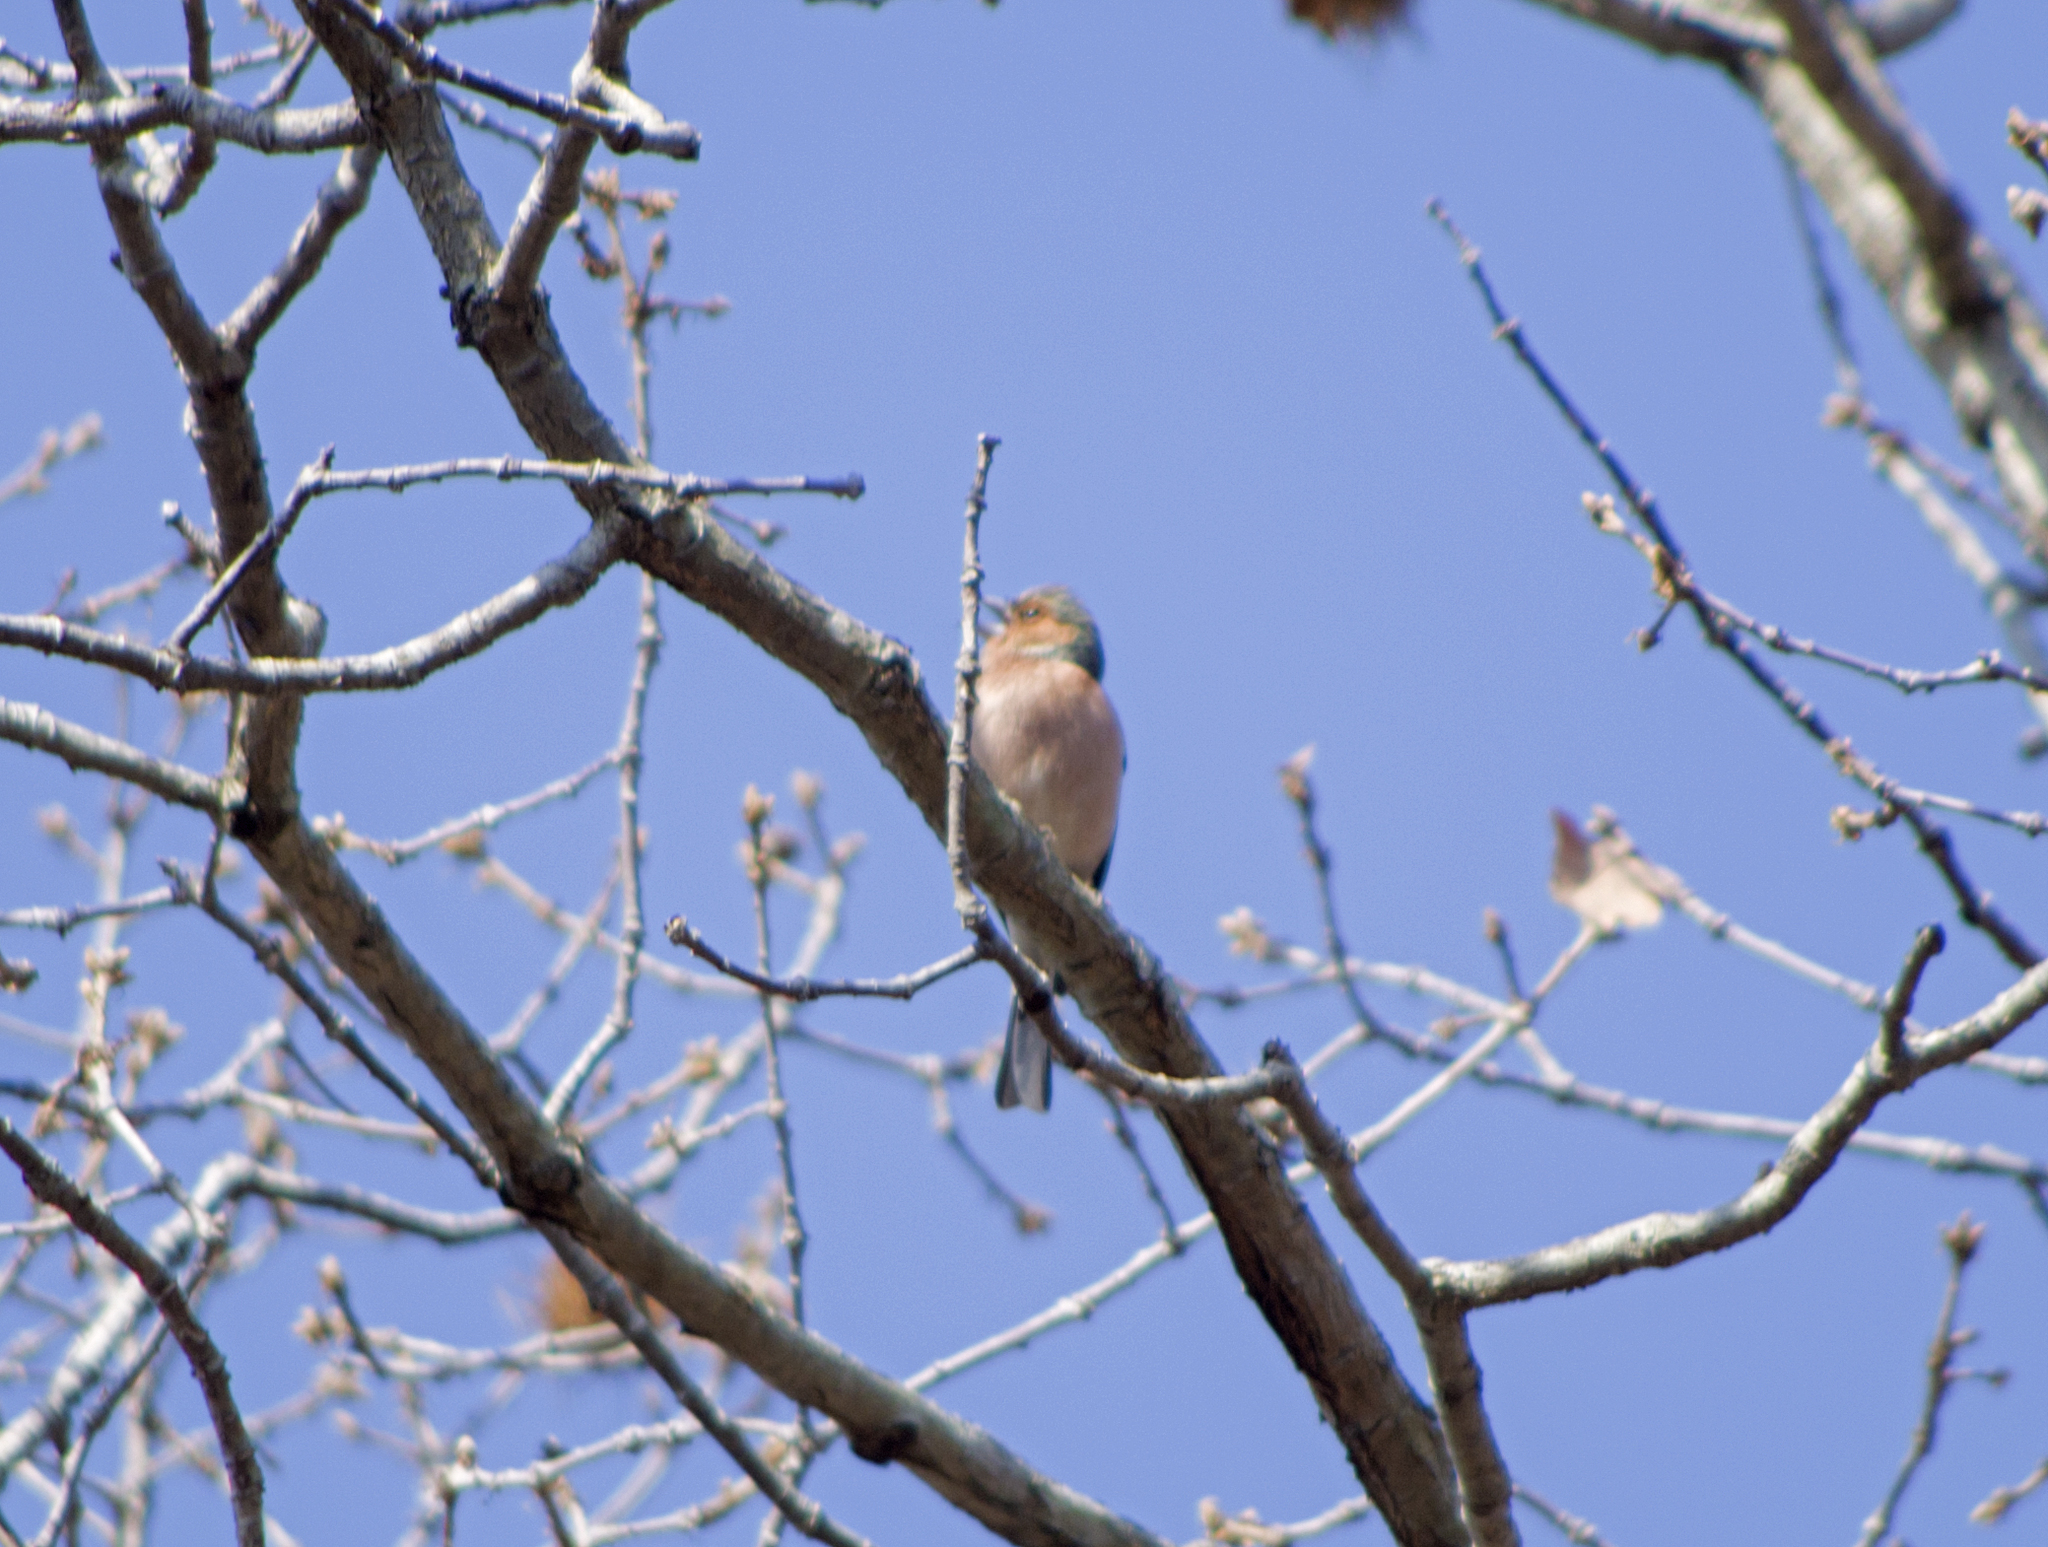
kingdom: Animalia
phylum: Chordata
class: Aves
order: Passeriformes
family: Fringillidae
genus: Fringilla
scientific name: Fringilla coelebs
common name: Common chaffinch
